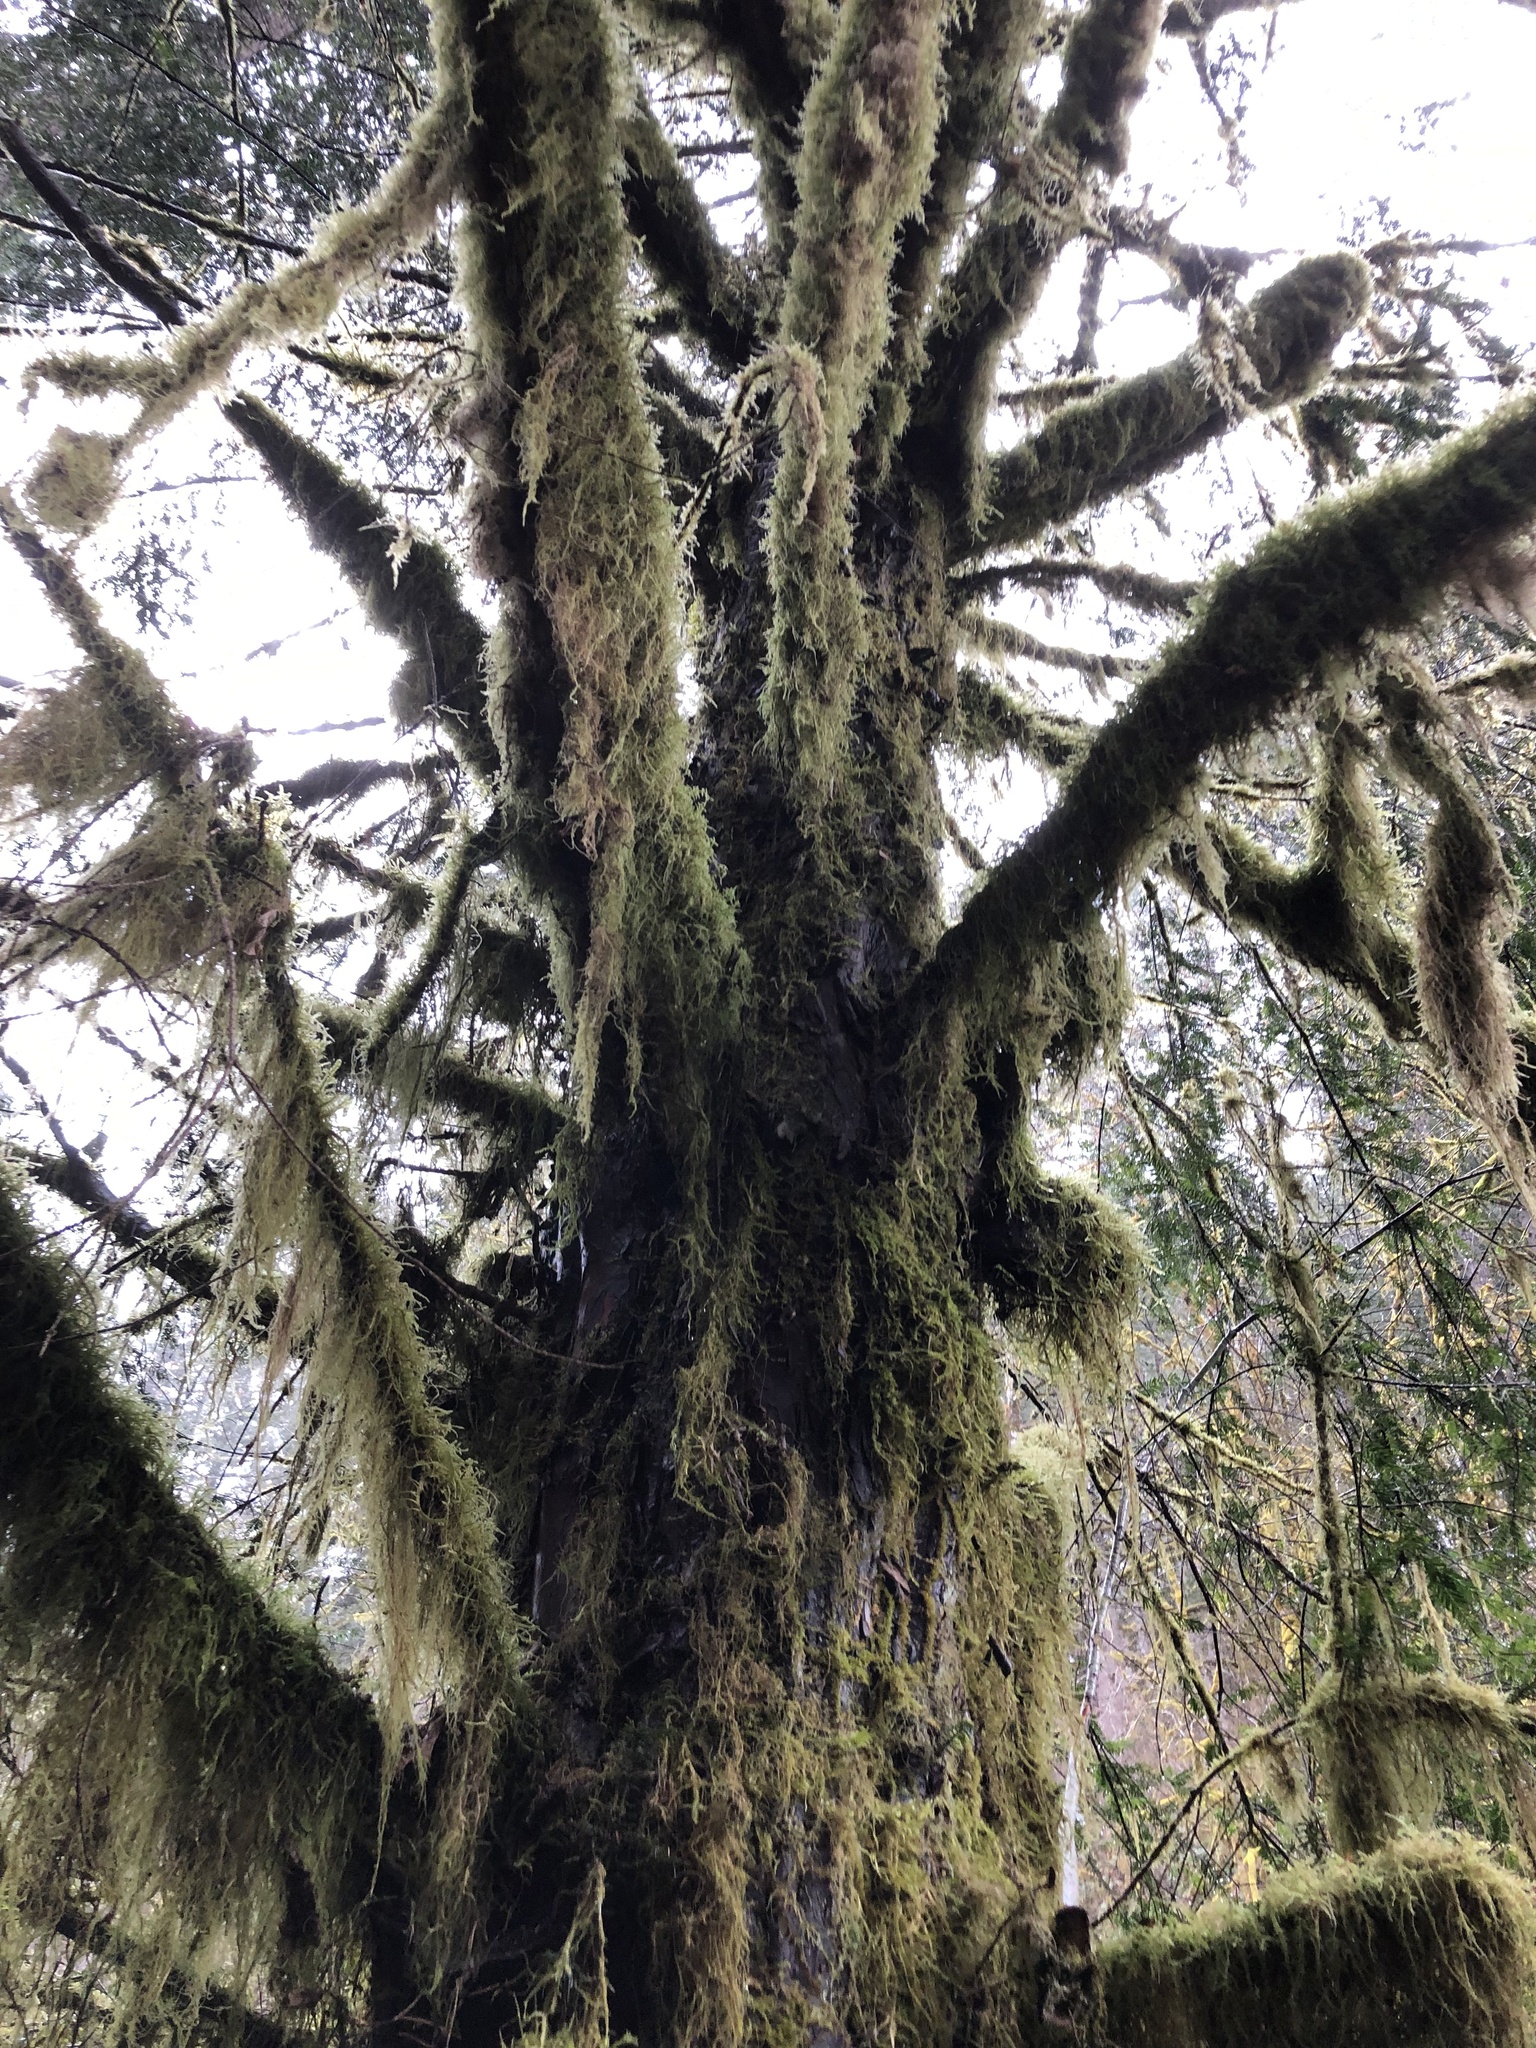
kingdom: Plantae
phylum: Tracheophyta
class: Pinopsida
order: Pinales
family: Taxaceae
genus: Taxus
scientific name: Taxus brevifolia
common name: Pacific yew
